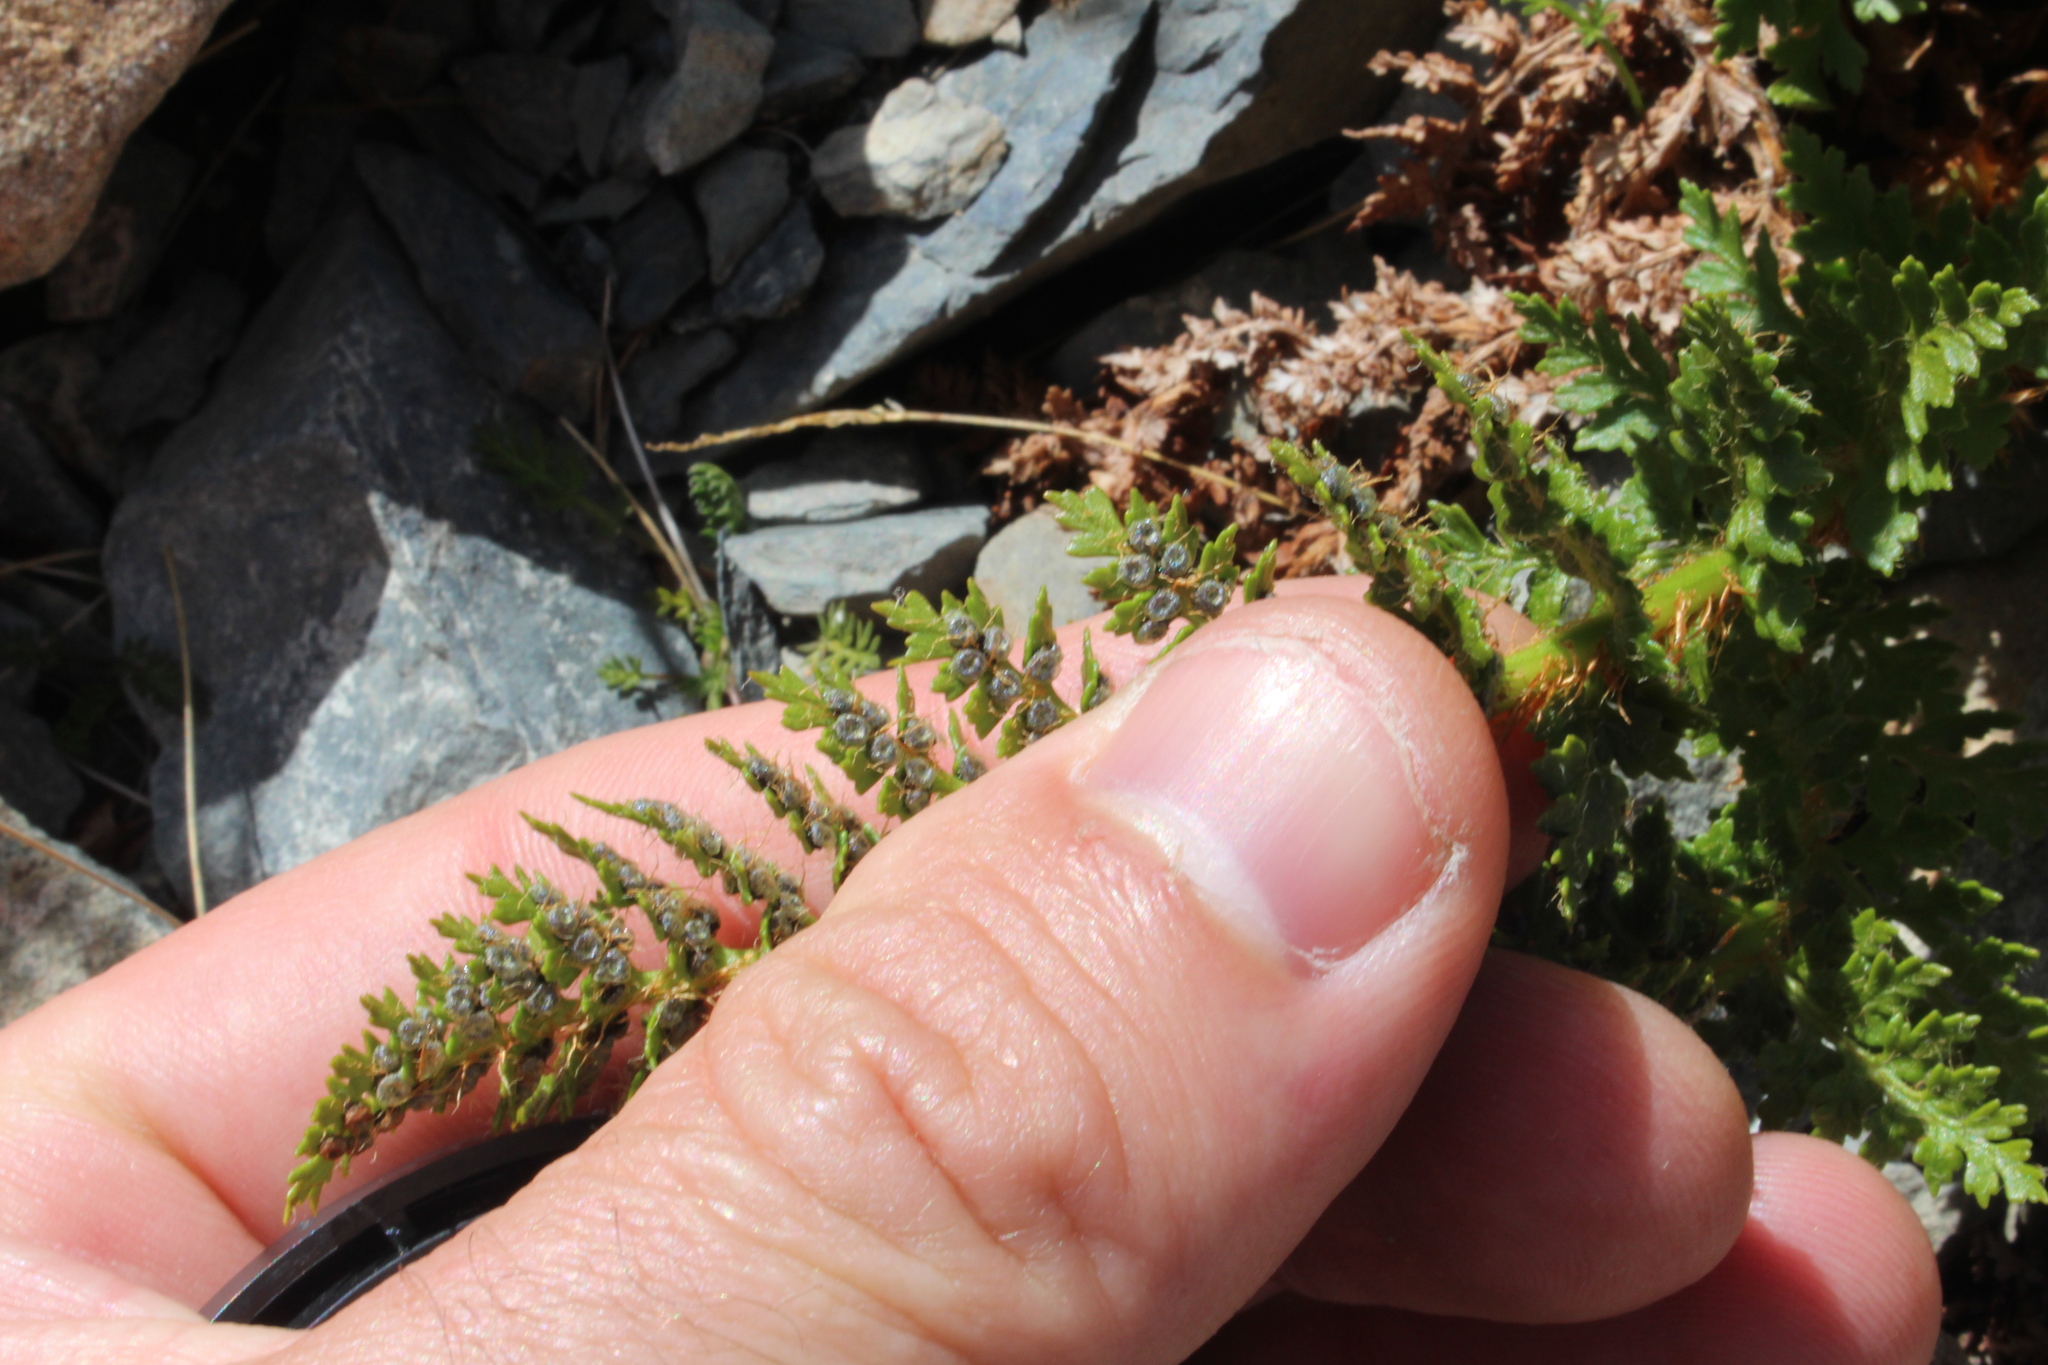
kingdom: Plantae
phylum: Tracheophyta
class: Polypodiopsida
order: Polypodiales
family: Dryopteridaceae
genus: Polystichum
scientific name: Polystichum cystostegia
